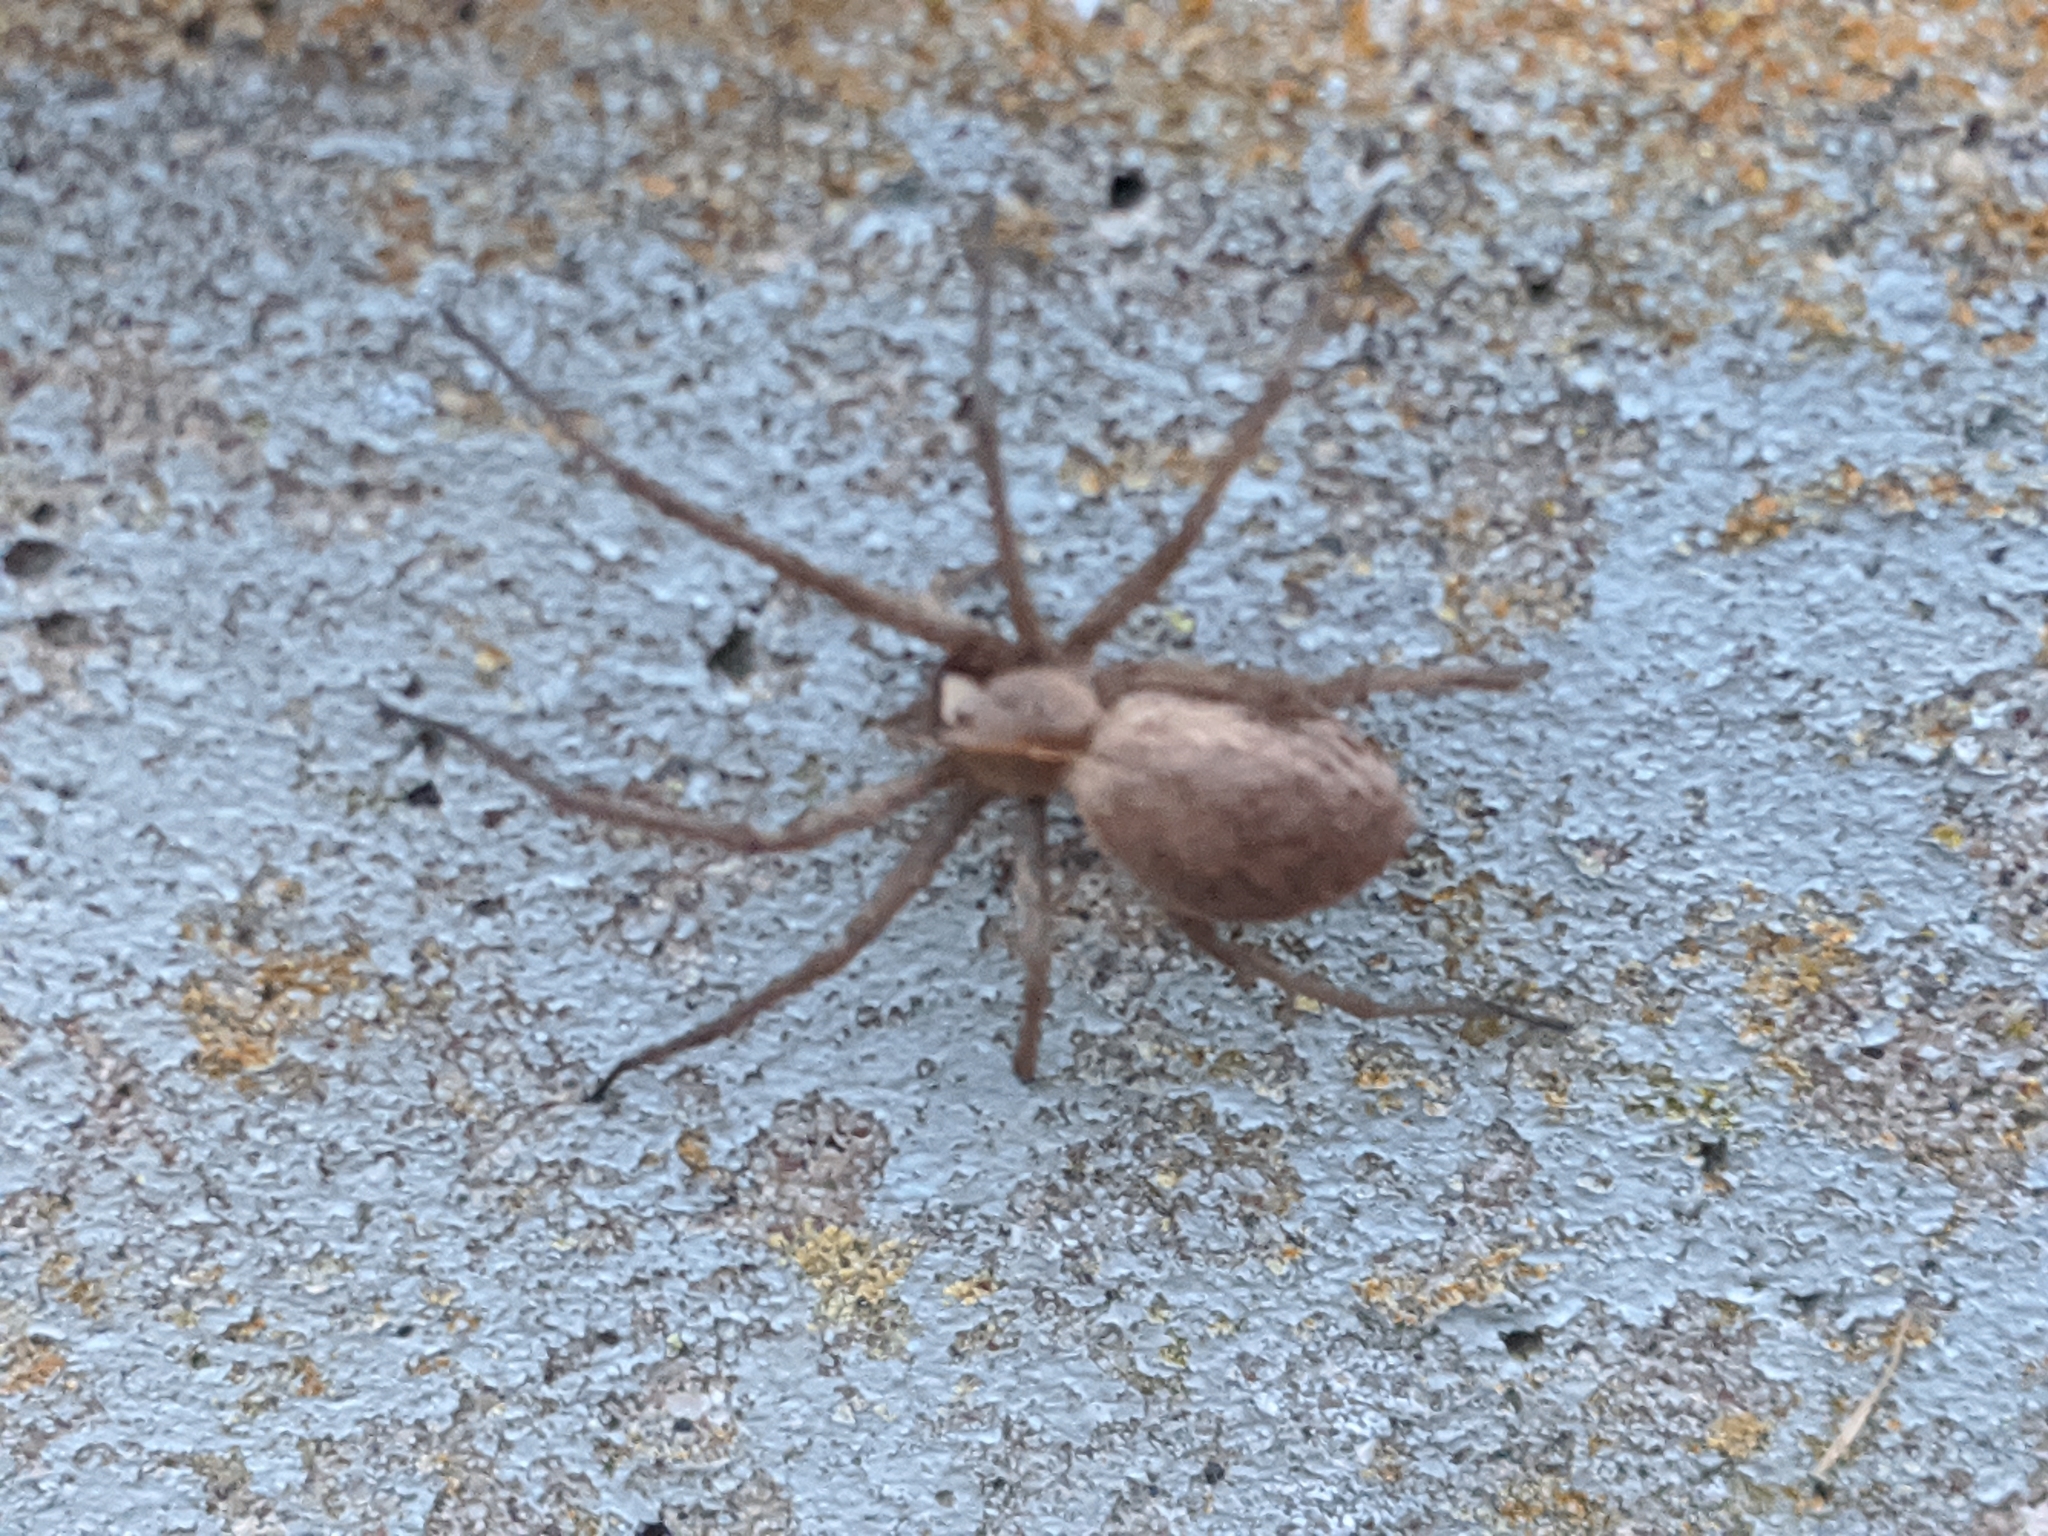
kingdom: Animalia
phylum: Arthropoda
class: Arachnida
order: Araneae
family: Pisauridae
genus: Pisaura
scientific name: Pisaura mirabilis
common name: Tent spider
